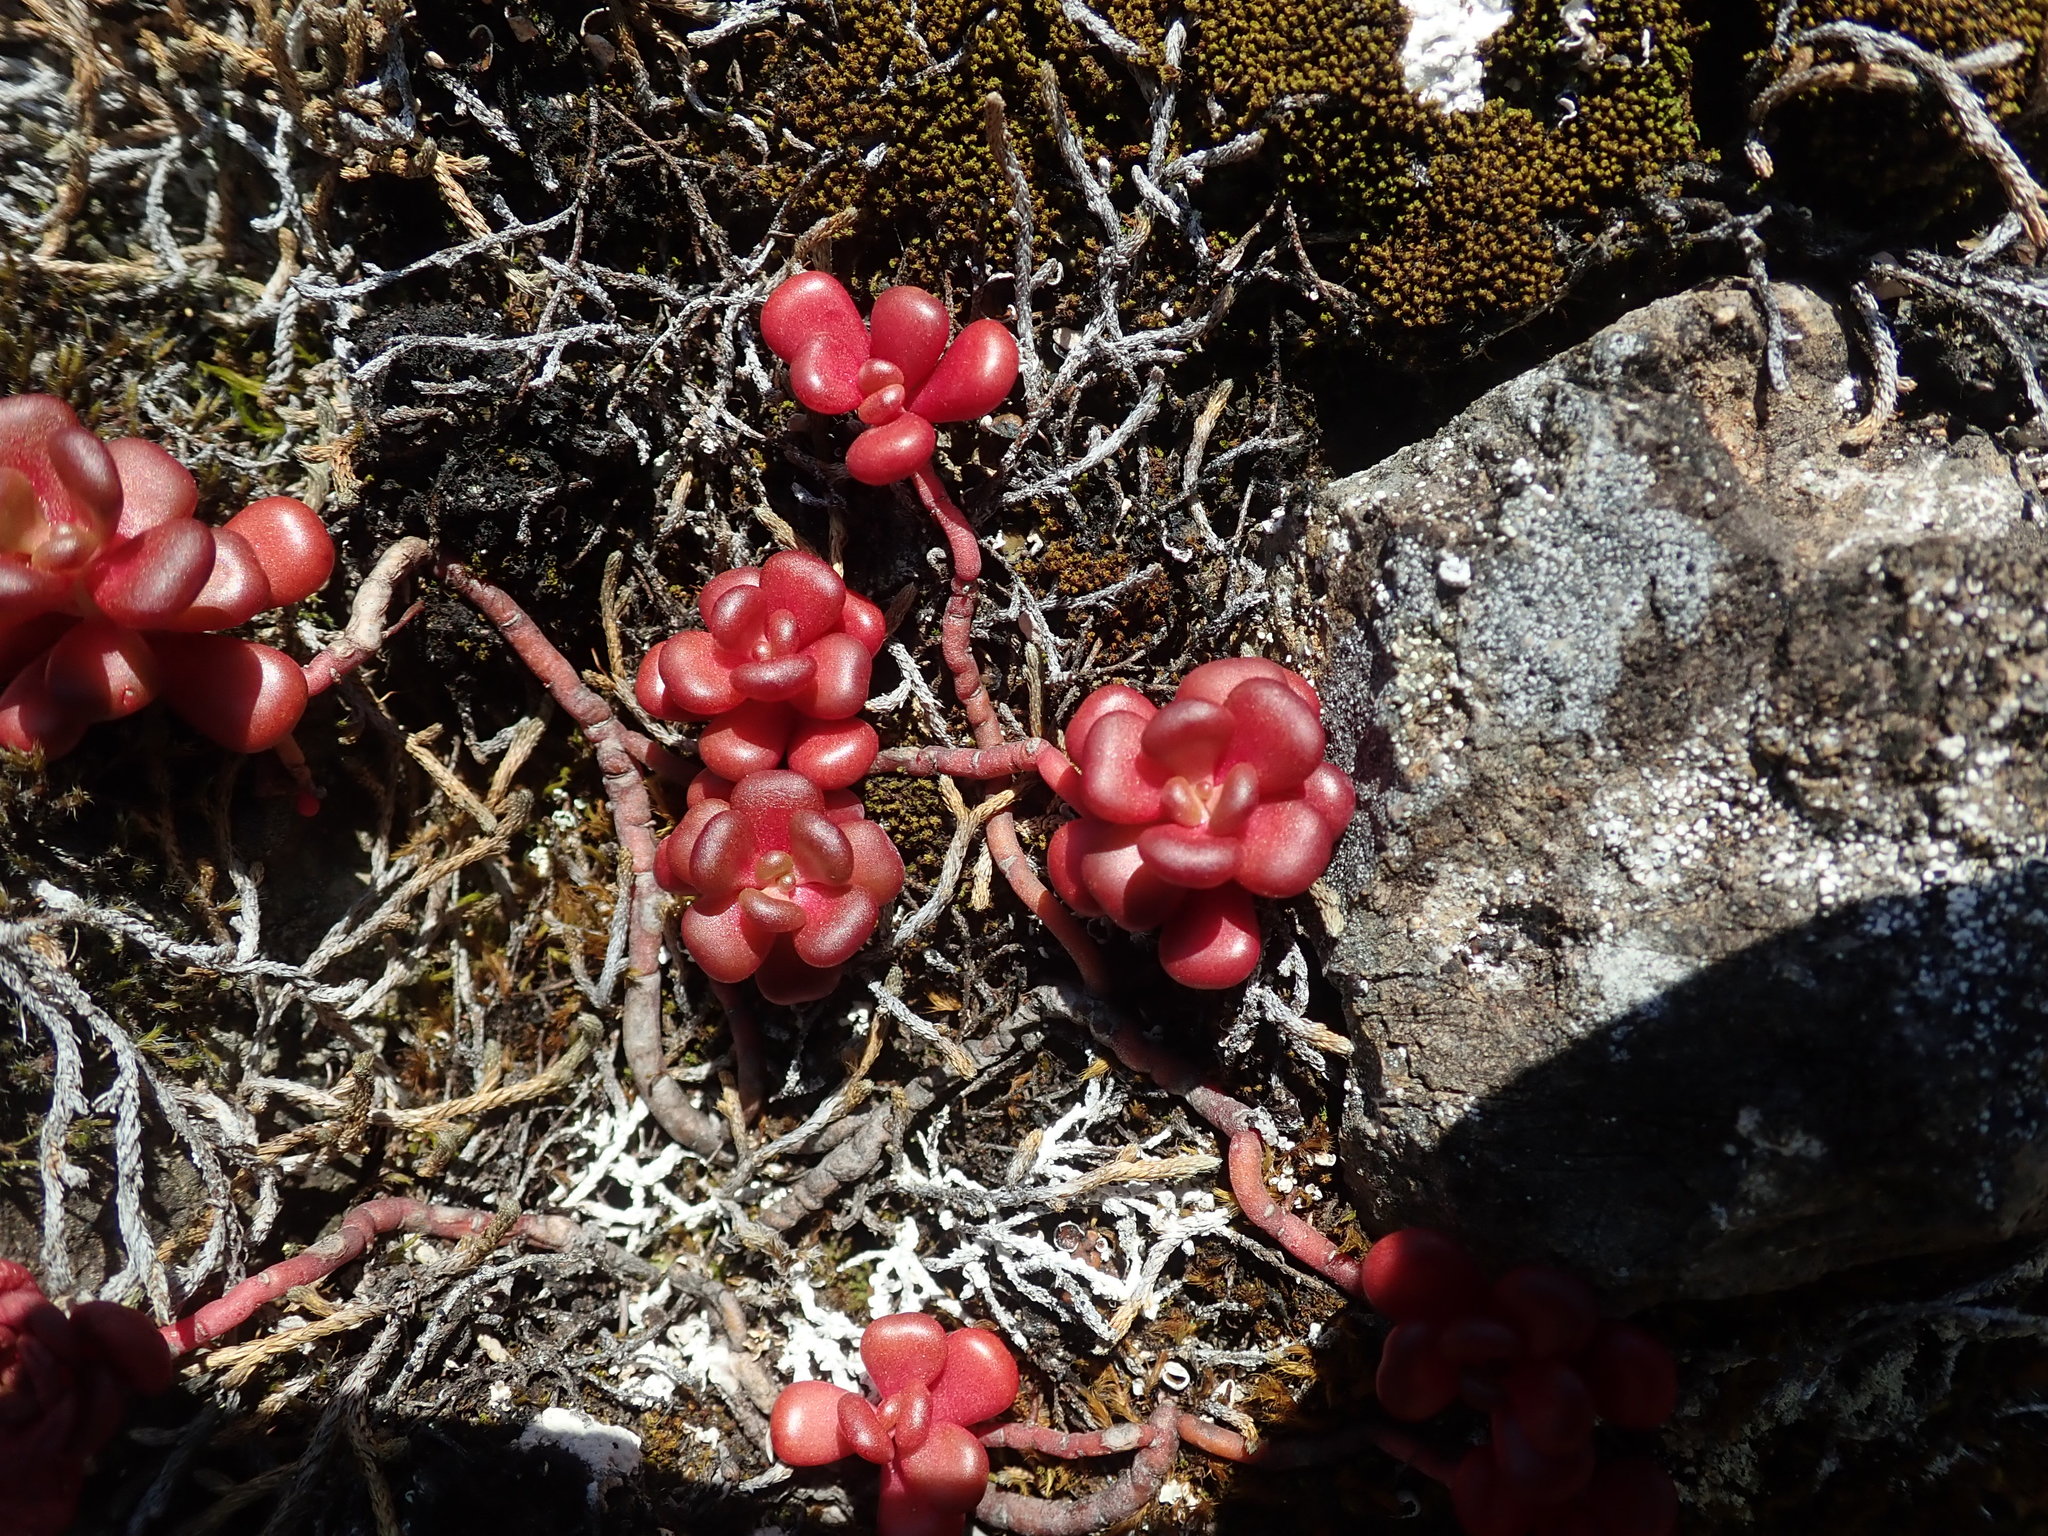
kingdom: Plantae
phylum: Tracheophyta
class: Magnoliopsida
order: Saxifragales
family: Crassulaceae
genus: Sedum
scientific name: Sedum oreganum
